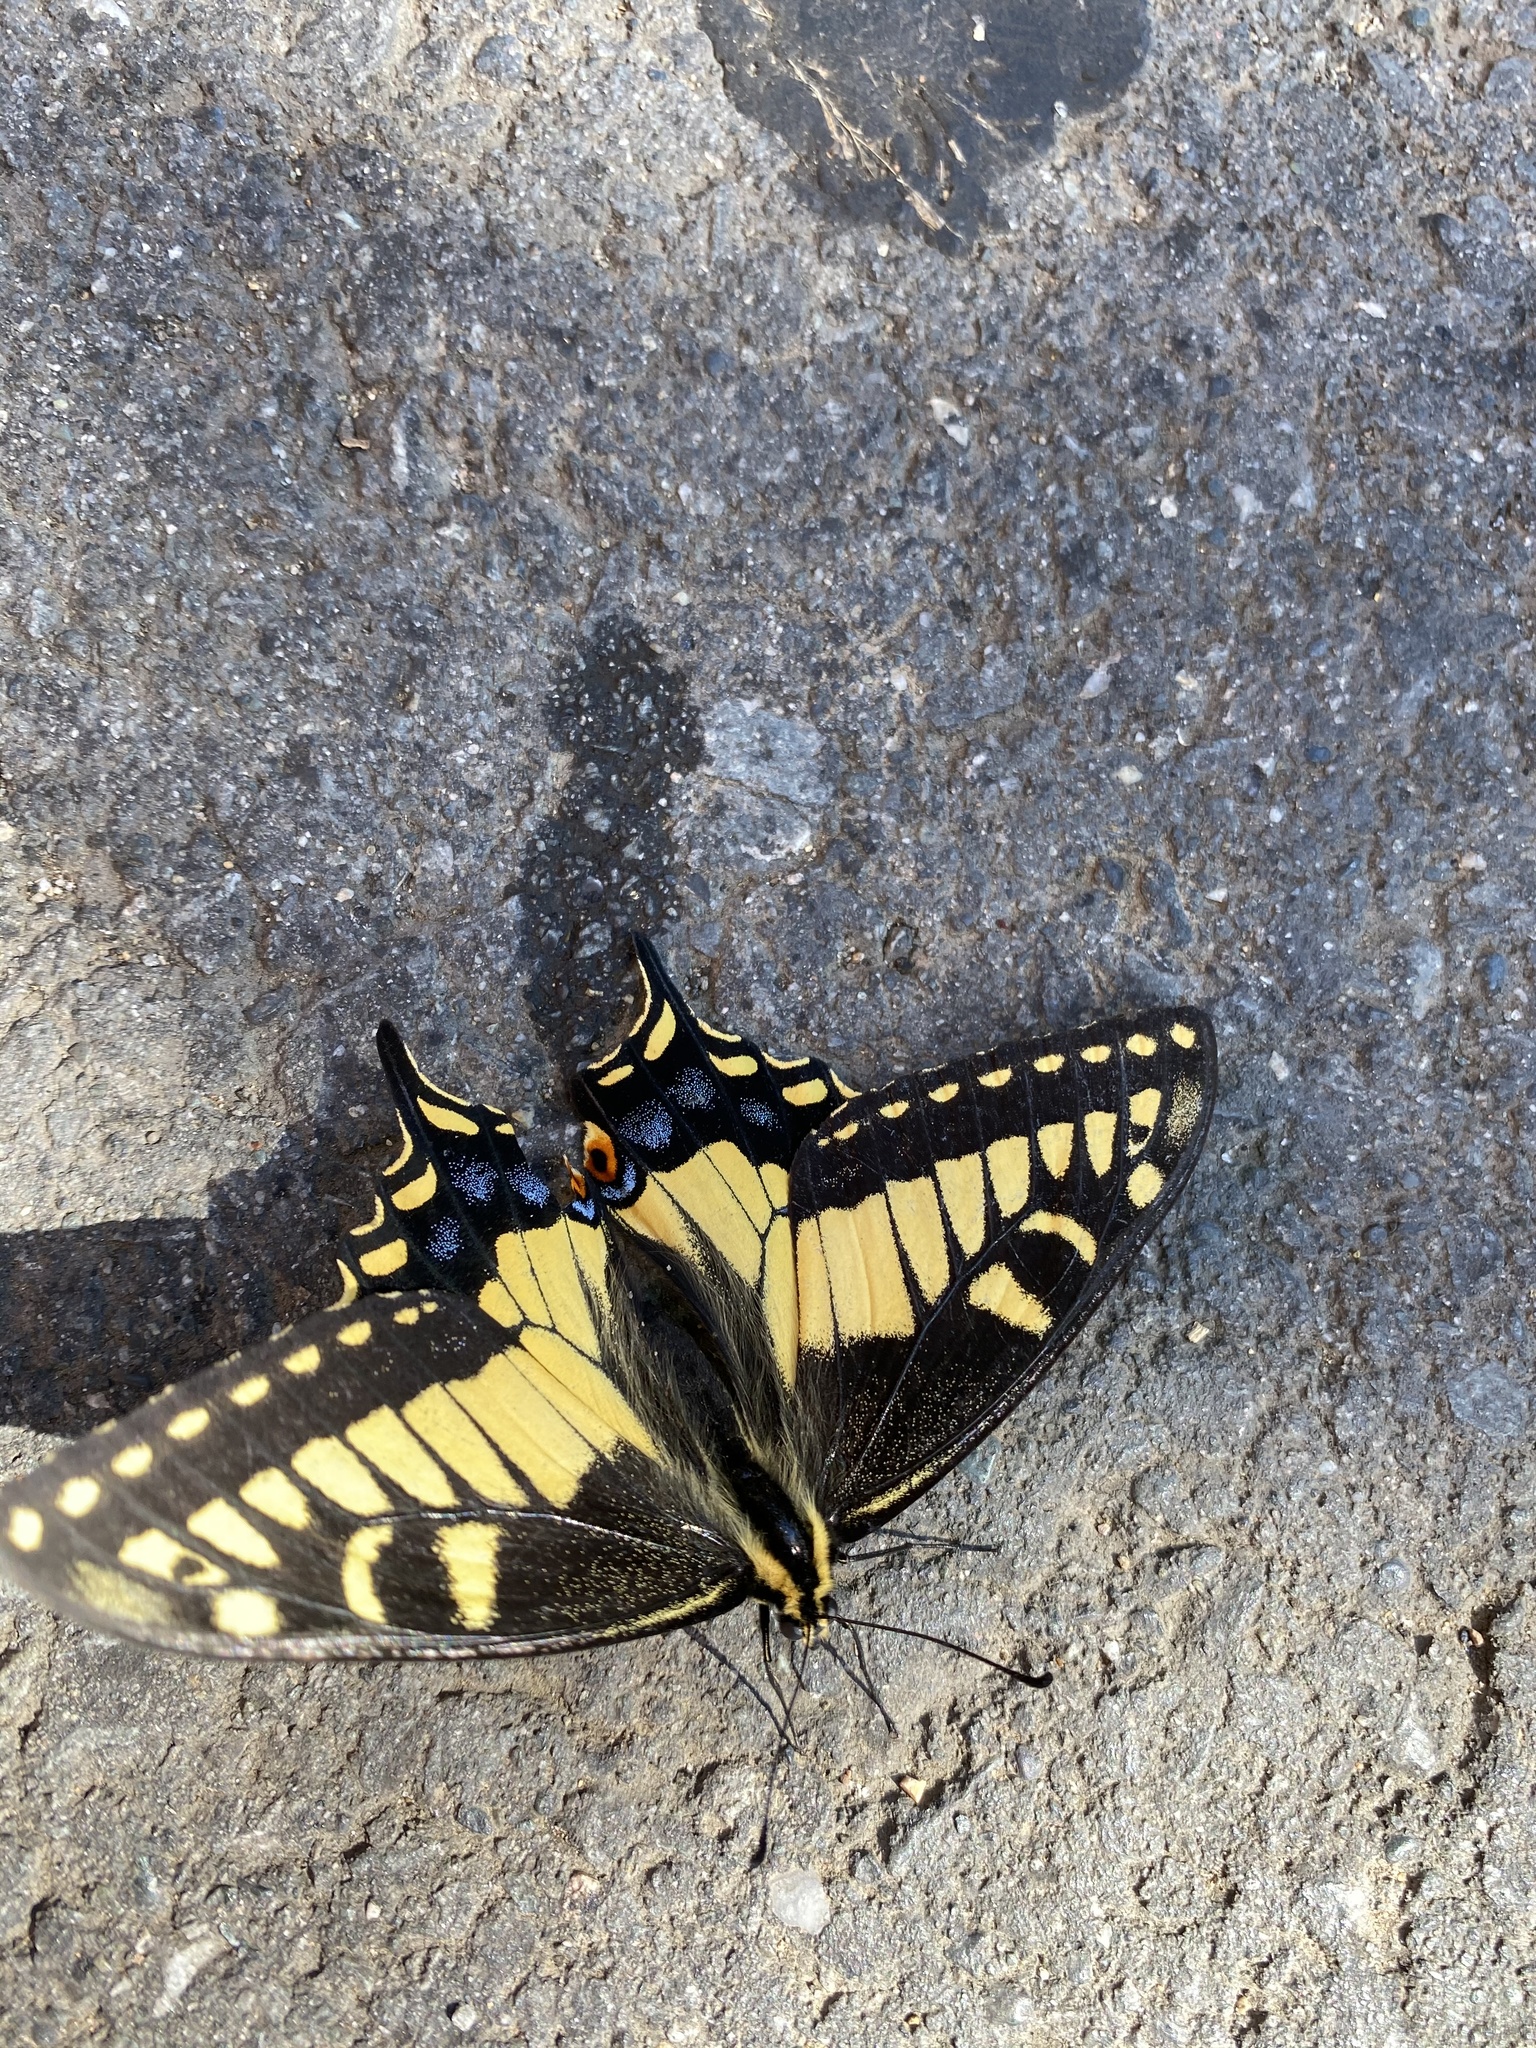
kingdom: Animalia
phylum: Arthropoda
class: Insecta
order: Lepidoptera
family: Papilionidae
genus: Papilio
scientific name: Papilio zelicaon
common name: Anise swallowtail
